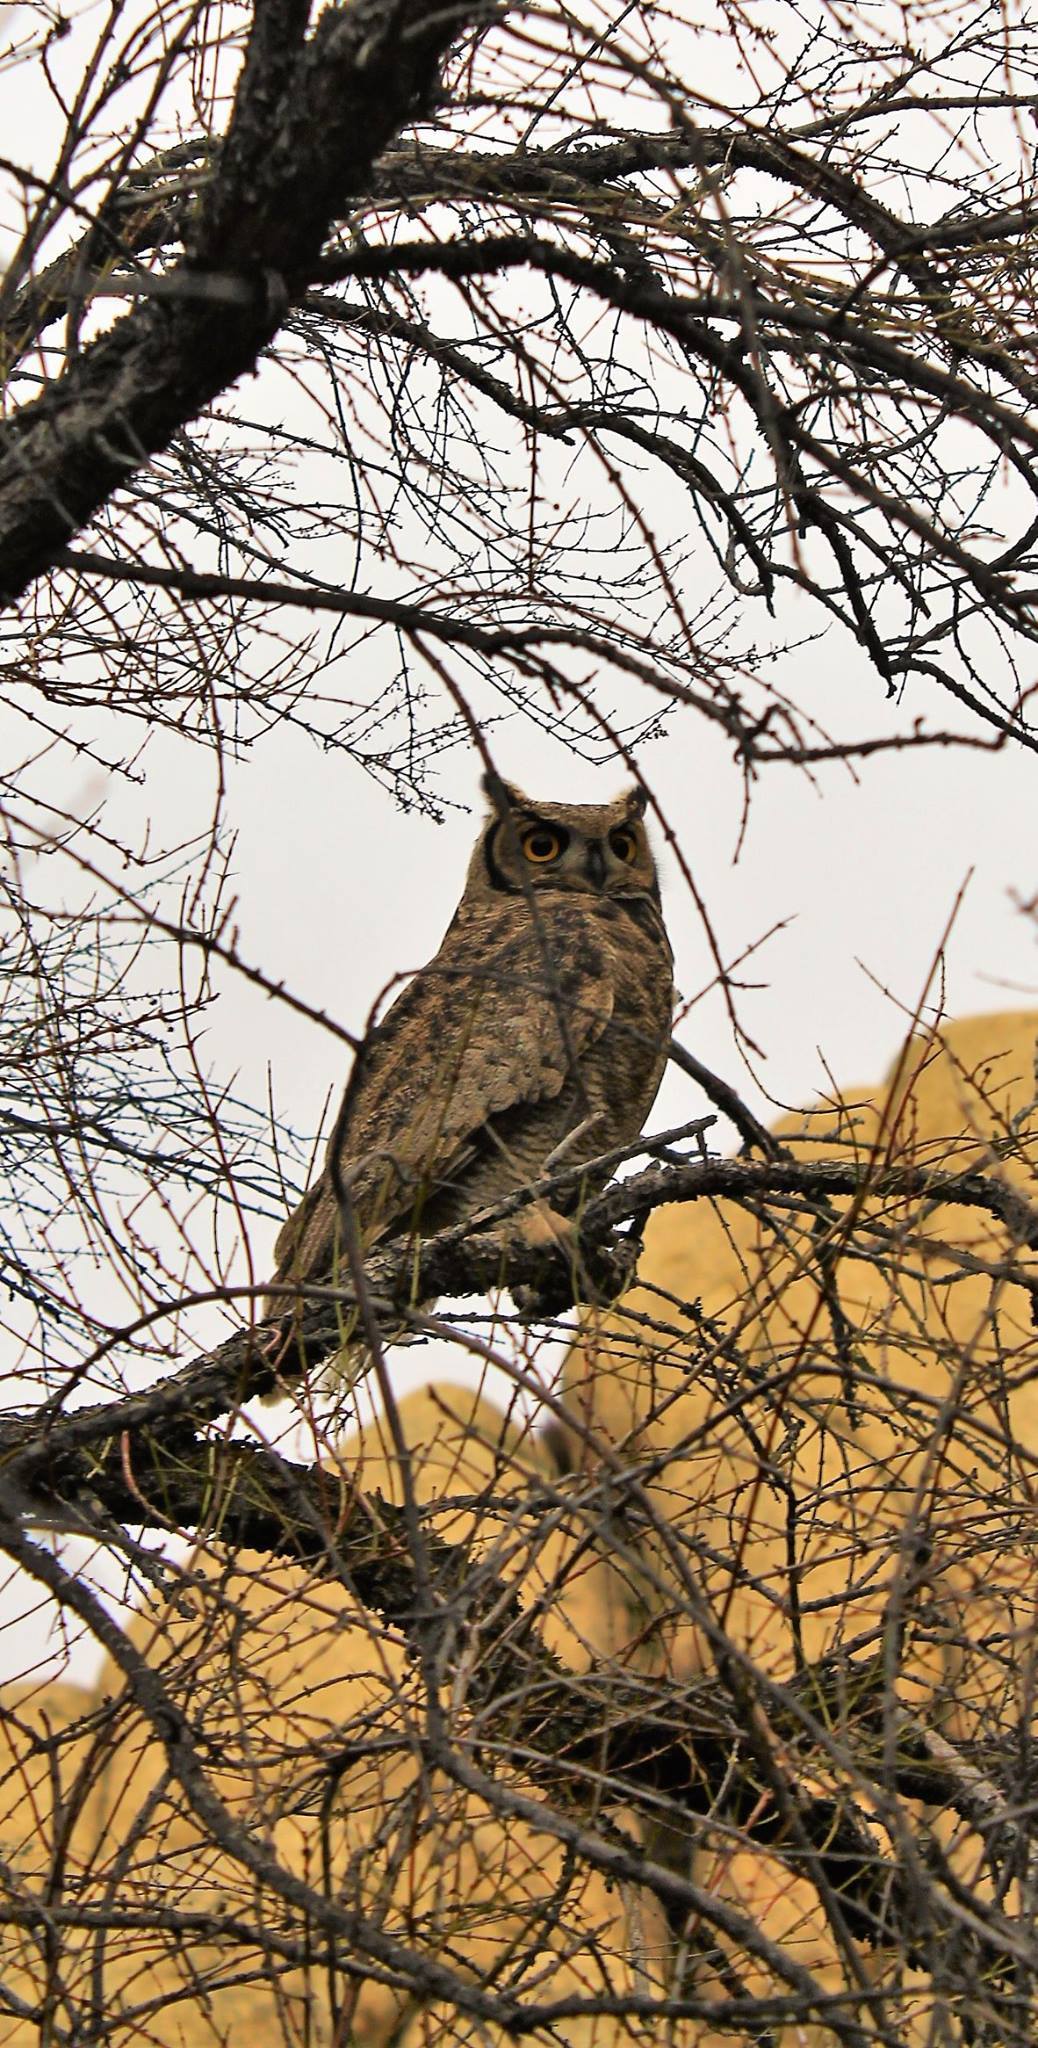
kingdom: Animalia
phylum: Chordata
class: Aves
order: Strigiformes
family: Strigidae
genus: Bubo
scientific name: Bubo magellanicus
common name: Lesser horned owl
